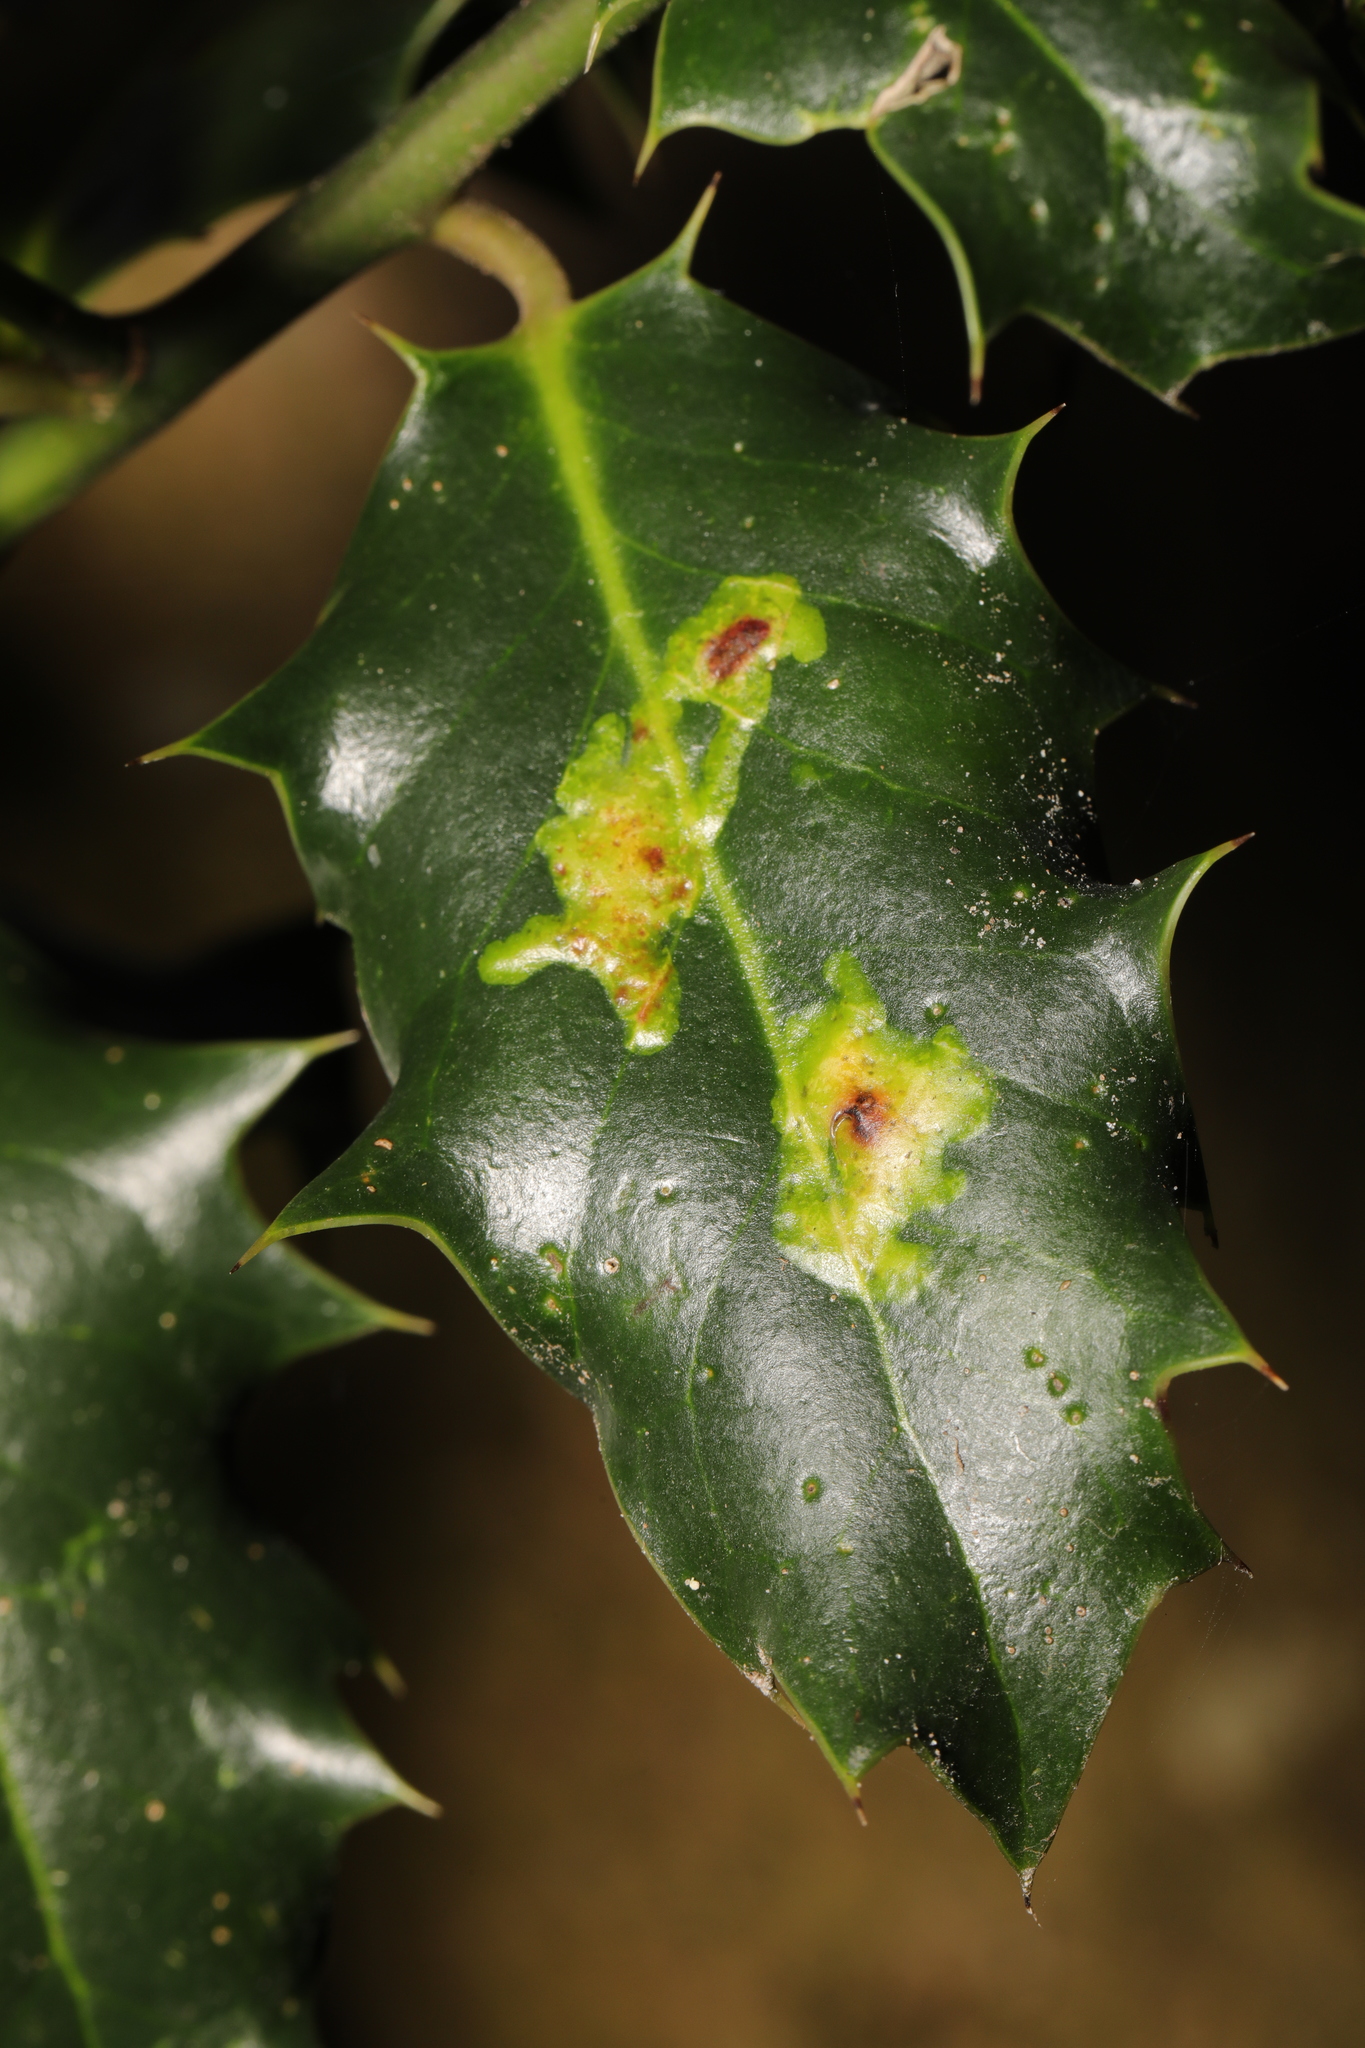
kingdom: Animalia
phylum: Arthropoda
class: Insecta
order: Diptera
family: Agromyzidae
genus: Phytomyza
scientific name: Phytomyza ilicis
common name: Holly leafminer
